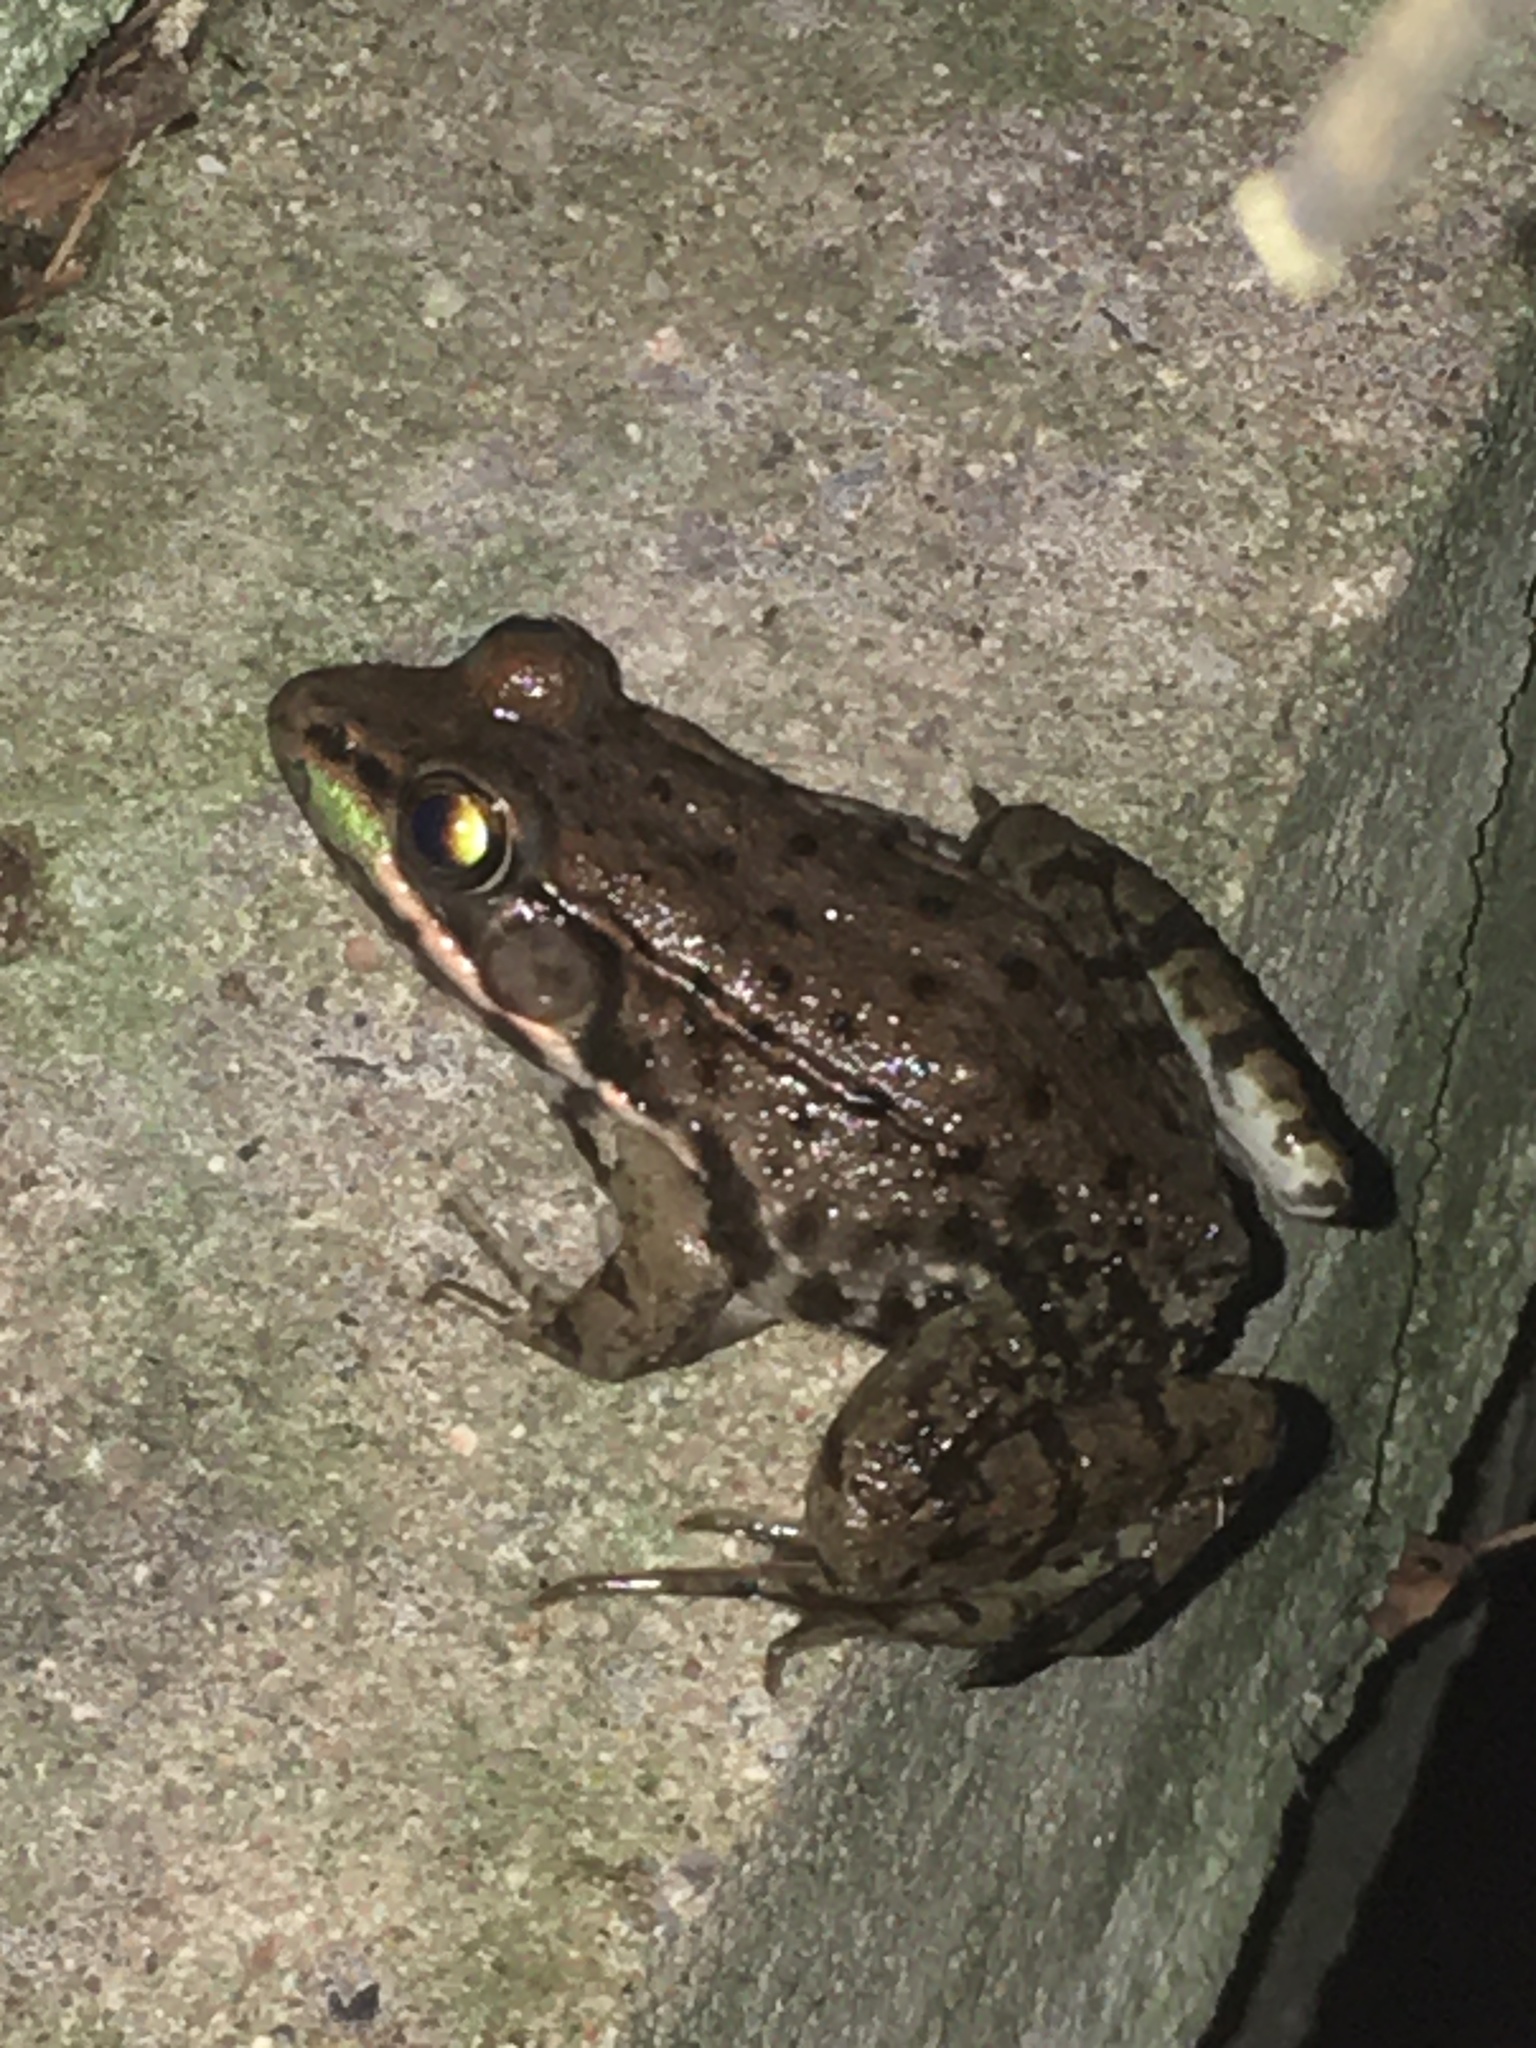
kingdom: Animalia
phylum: Chordata
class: Amphibia
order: Anura
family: Ranidae
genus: Lithobates
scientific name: Lithobates clamitans
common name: Green frog
